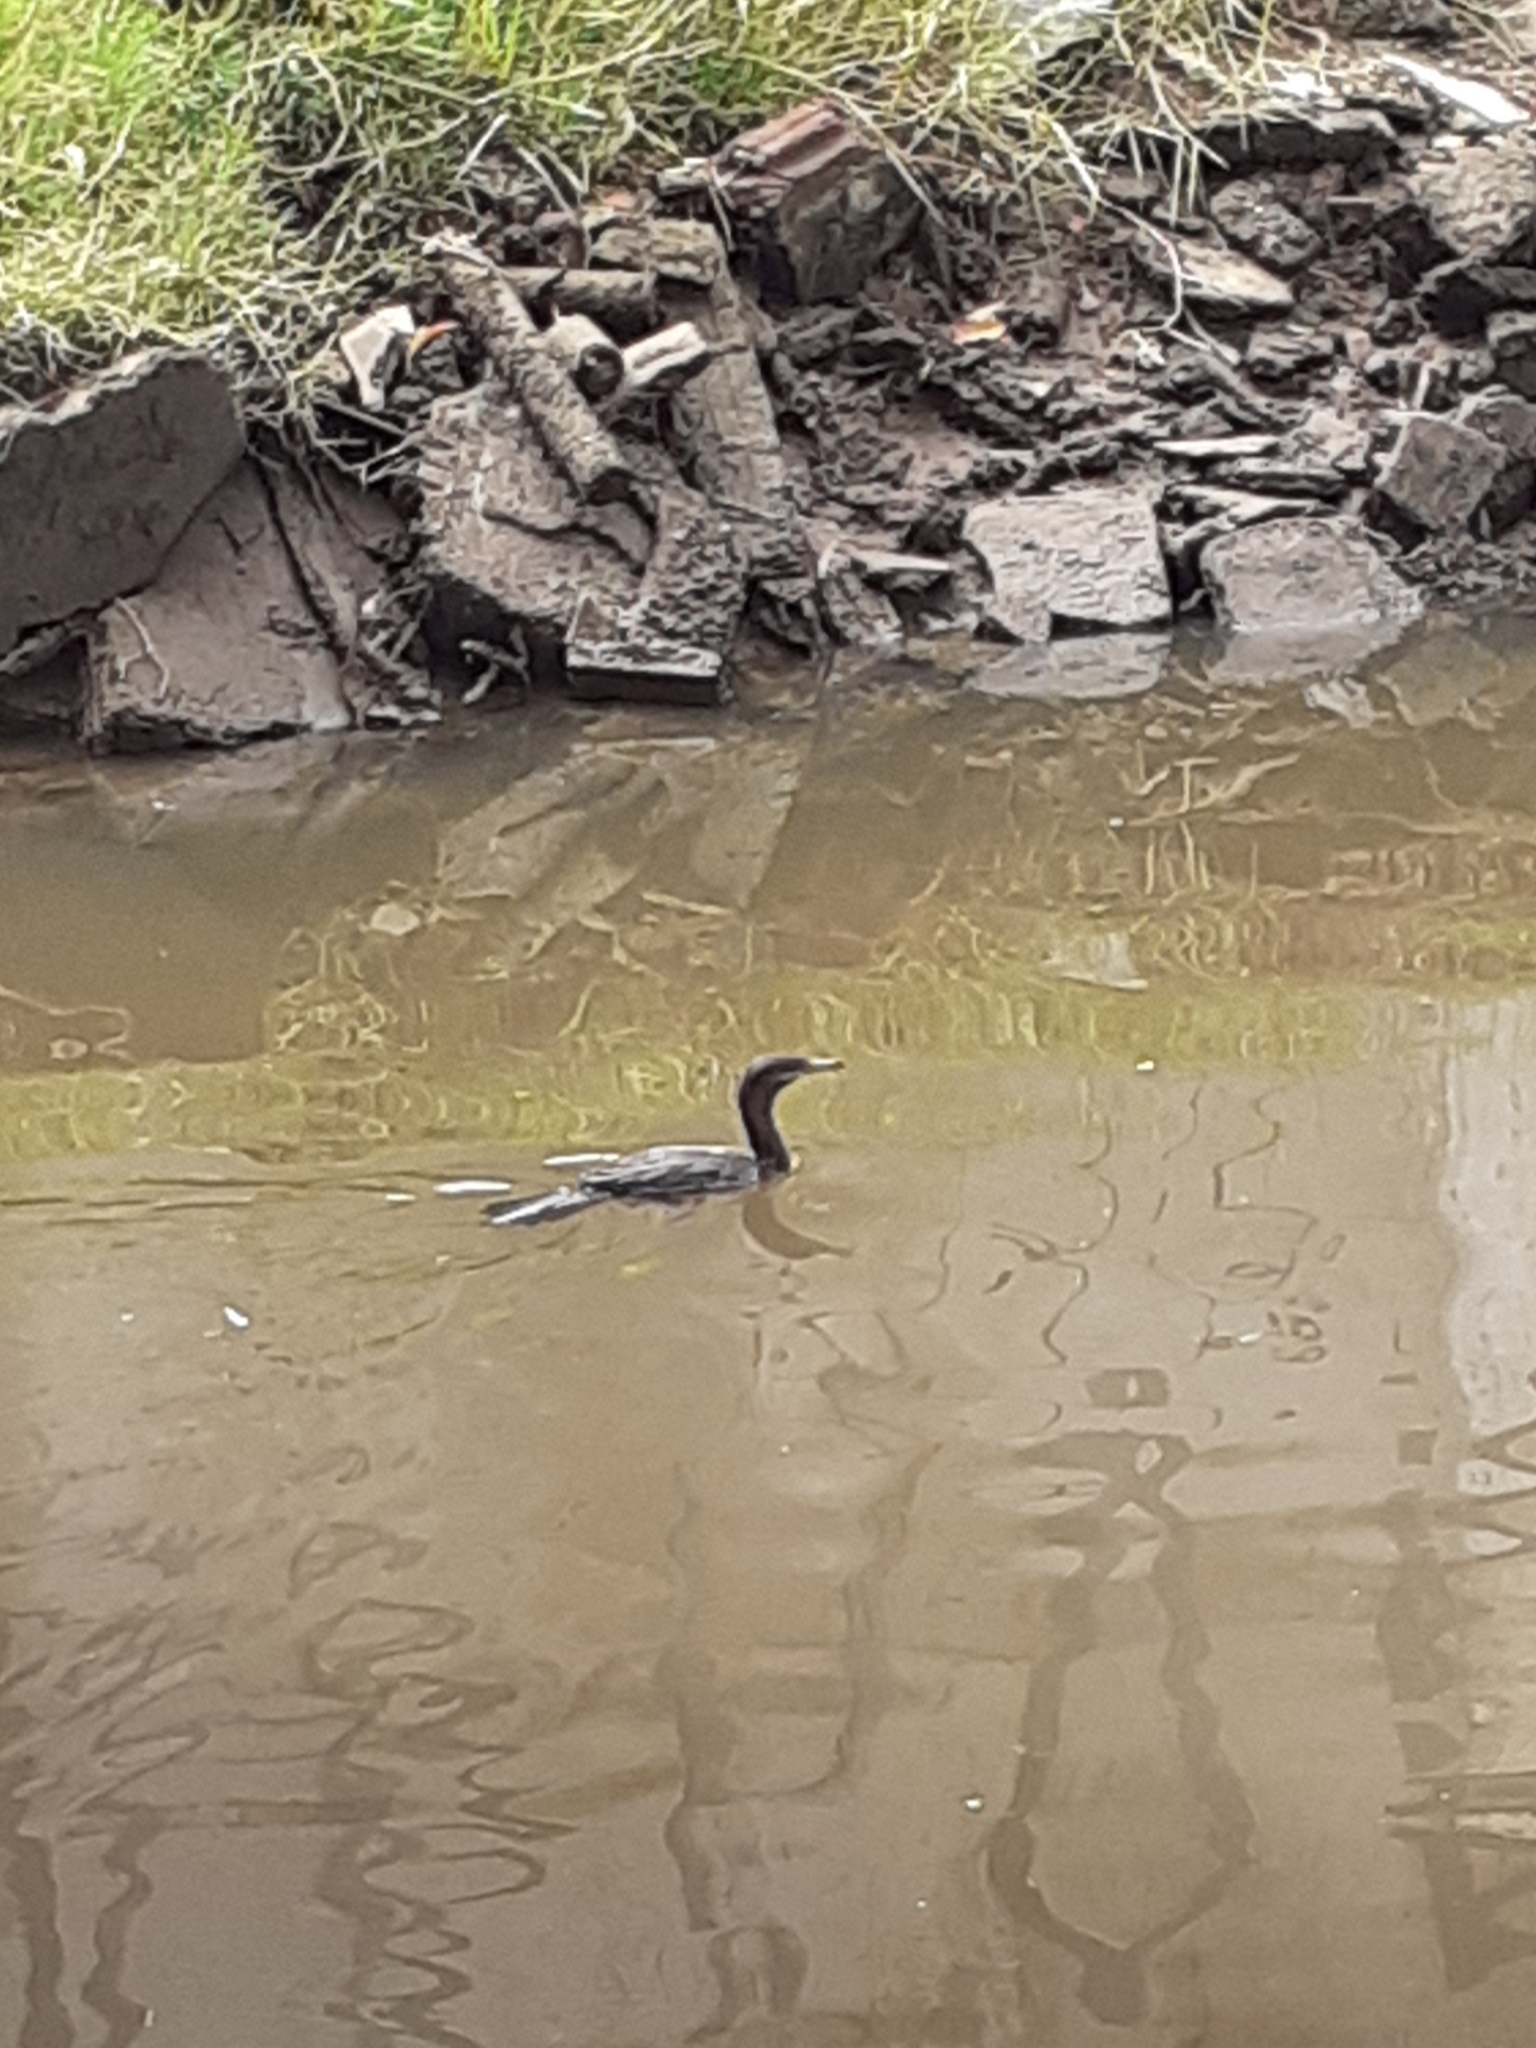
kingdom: Animalia
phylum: Chordata
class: Aves
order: Suliformes
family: Phalacrocoracidae
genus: Phalacrocorax
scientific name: Phalacrocorax brasilianus
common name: Neotropic cormorant
